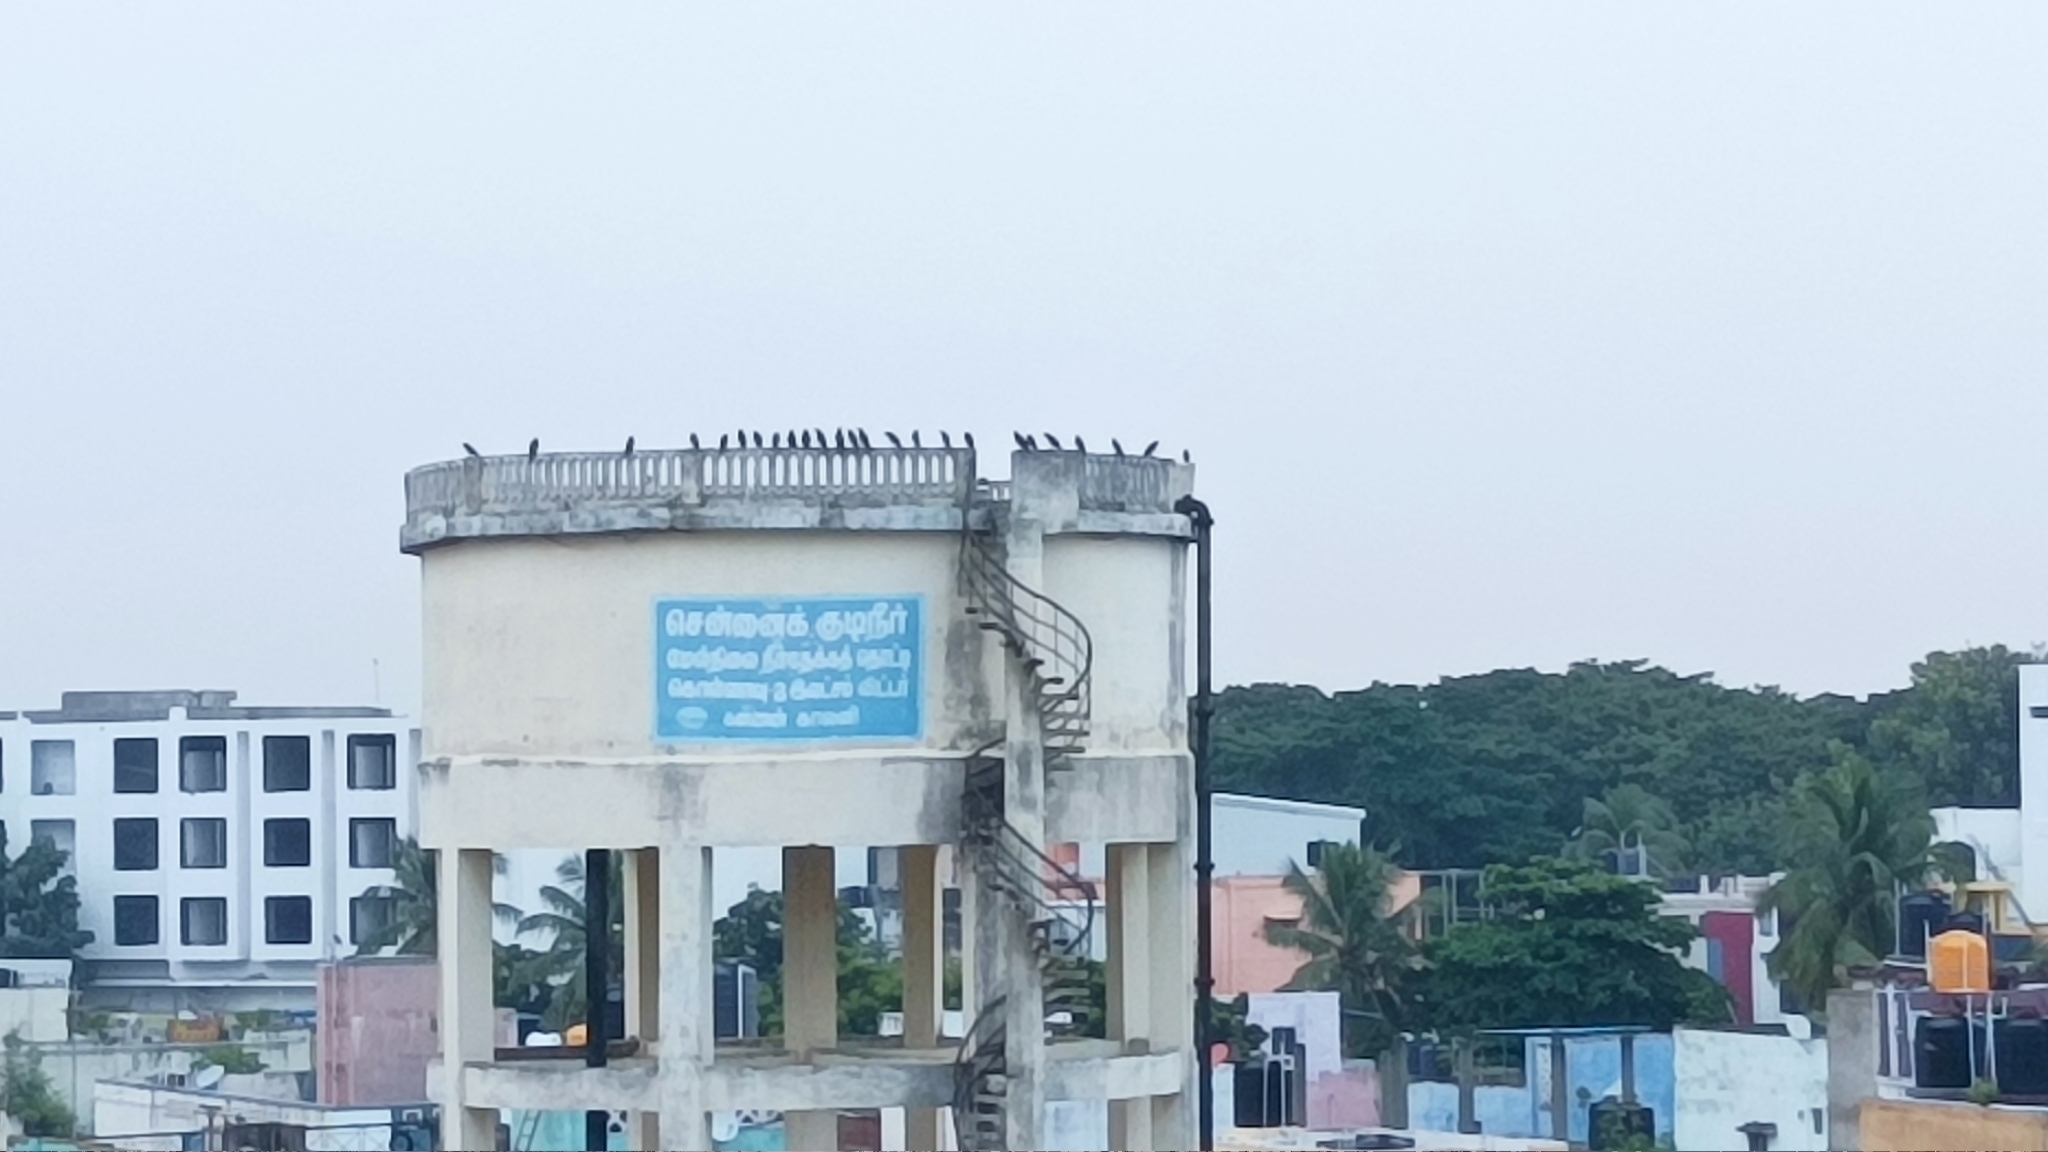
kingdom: Animalia
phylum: Chordata
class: Aves
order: Passeriformes
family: Corvidae
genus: Corvus
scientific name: Corvus splendens
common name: House crow
